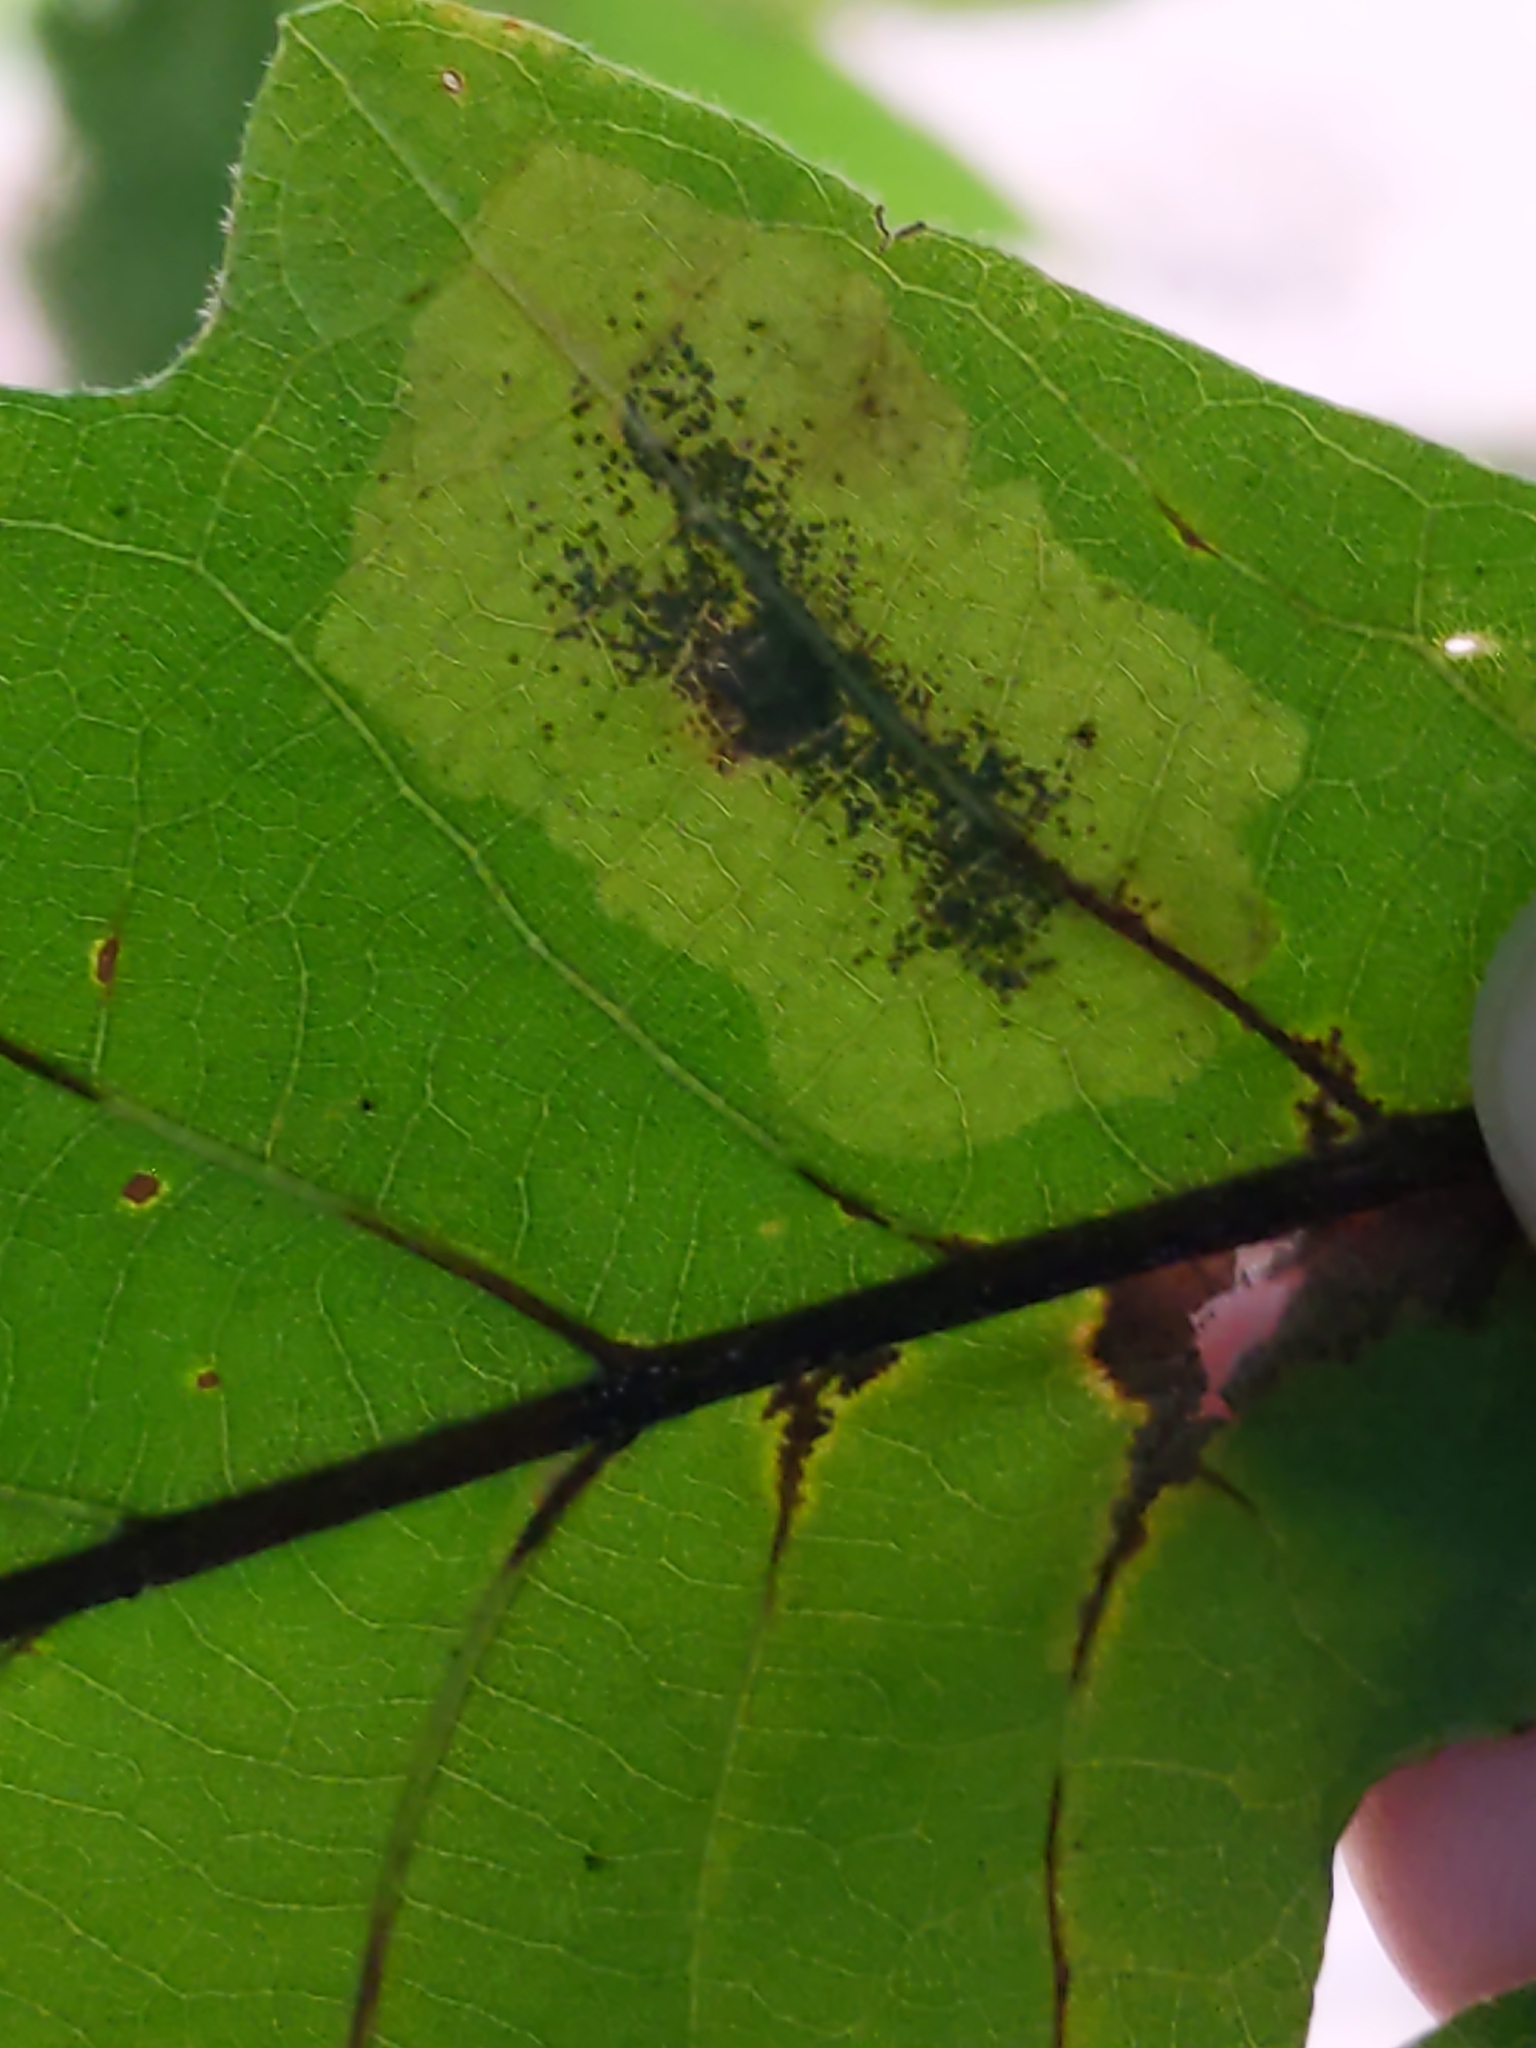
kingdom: Animalia
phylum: Arthropoda
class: Insecta
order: Lepidoptera
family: Gracillariidae
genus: Cameraria
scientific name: Cameraria
